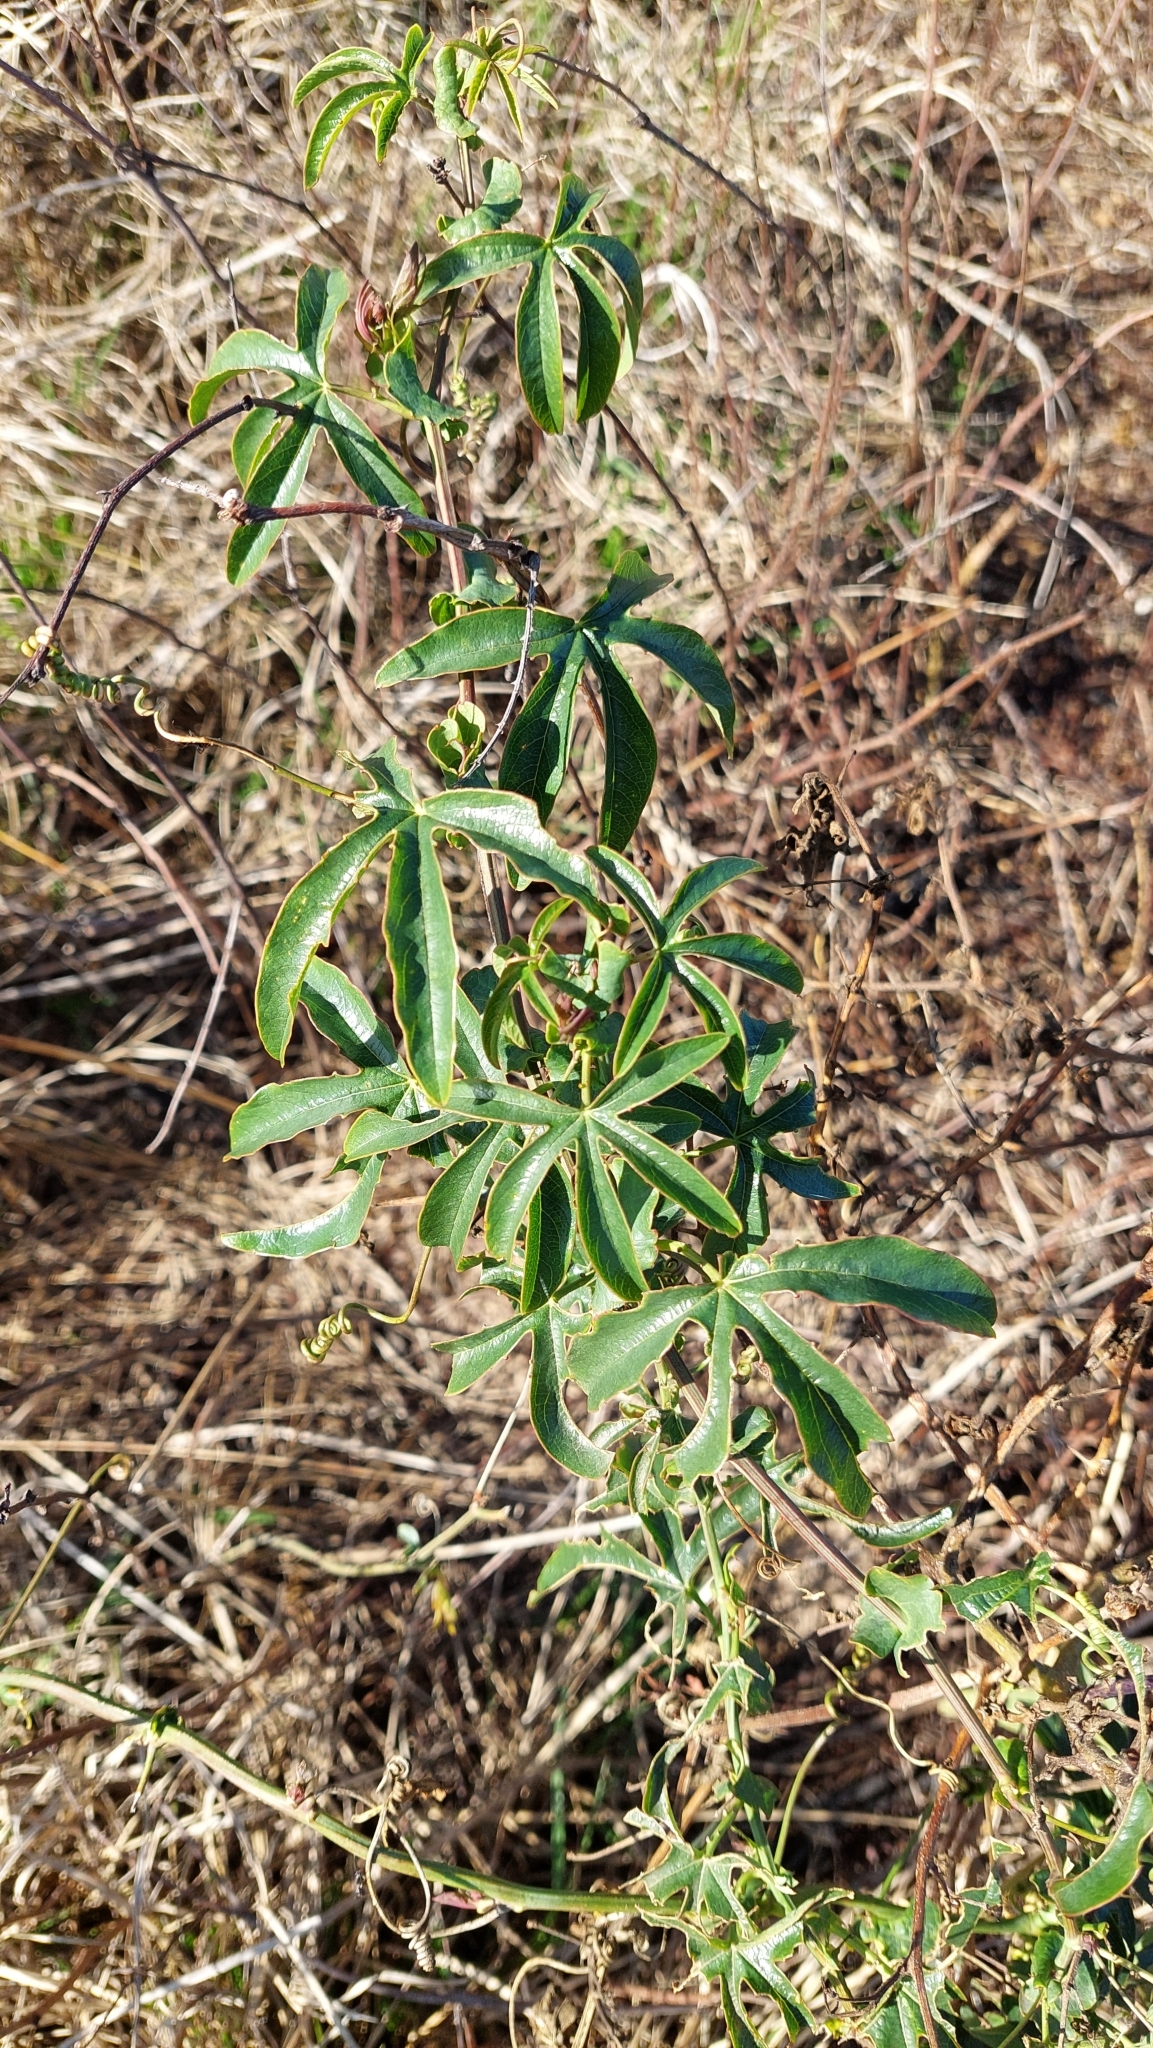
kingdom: Plantae
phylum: Tracheophyta
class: Magnoliopsida
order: Malpighiales
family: Passifloraceae
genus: Passiflora
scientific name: Passiflora caerulea
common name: Blue passionflower
